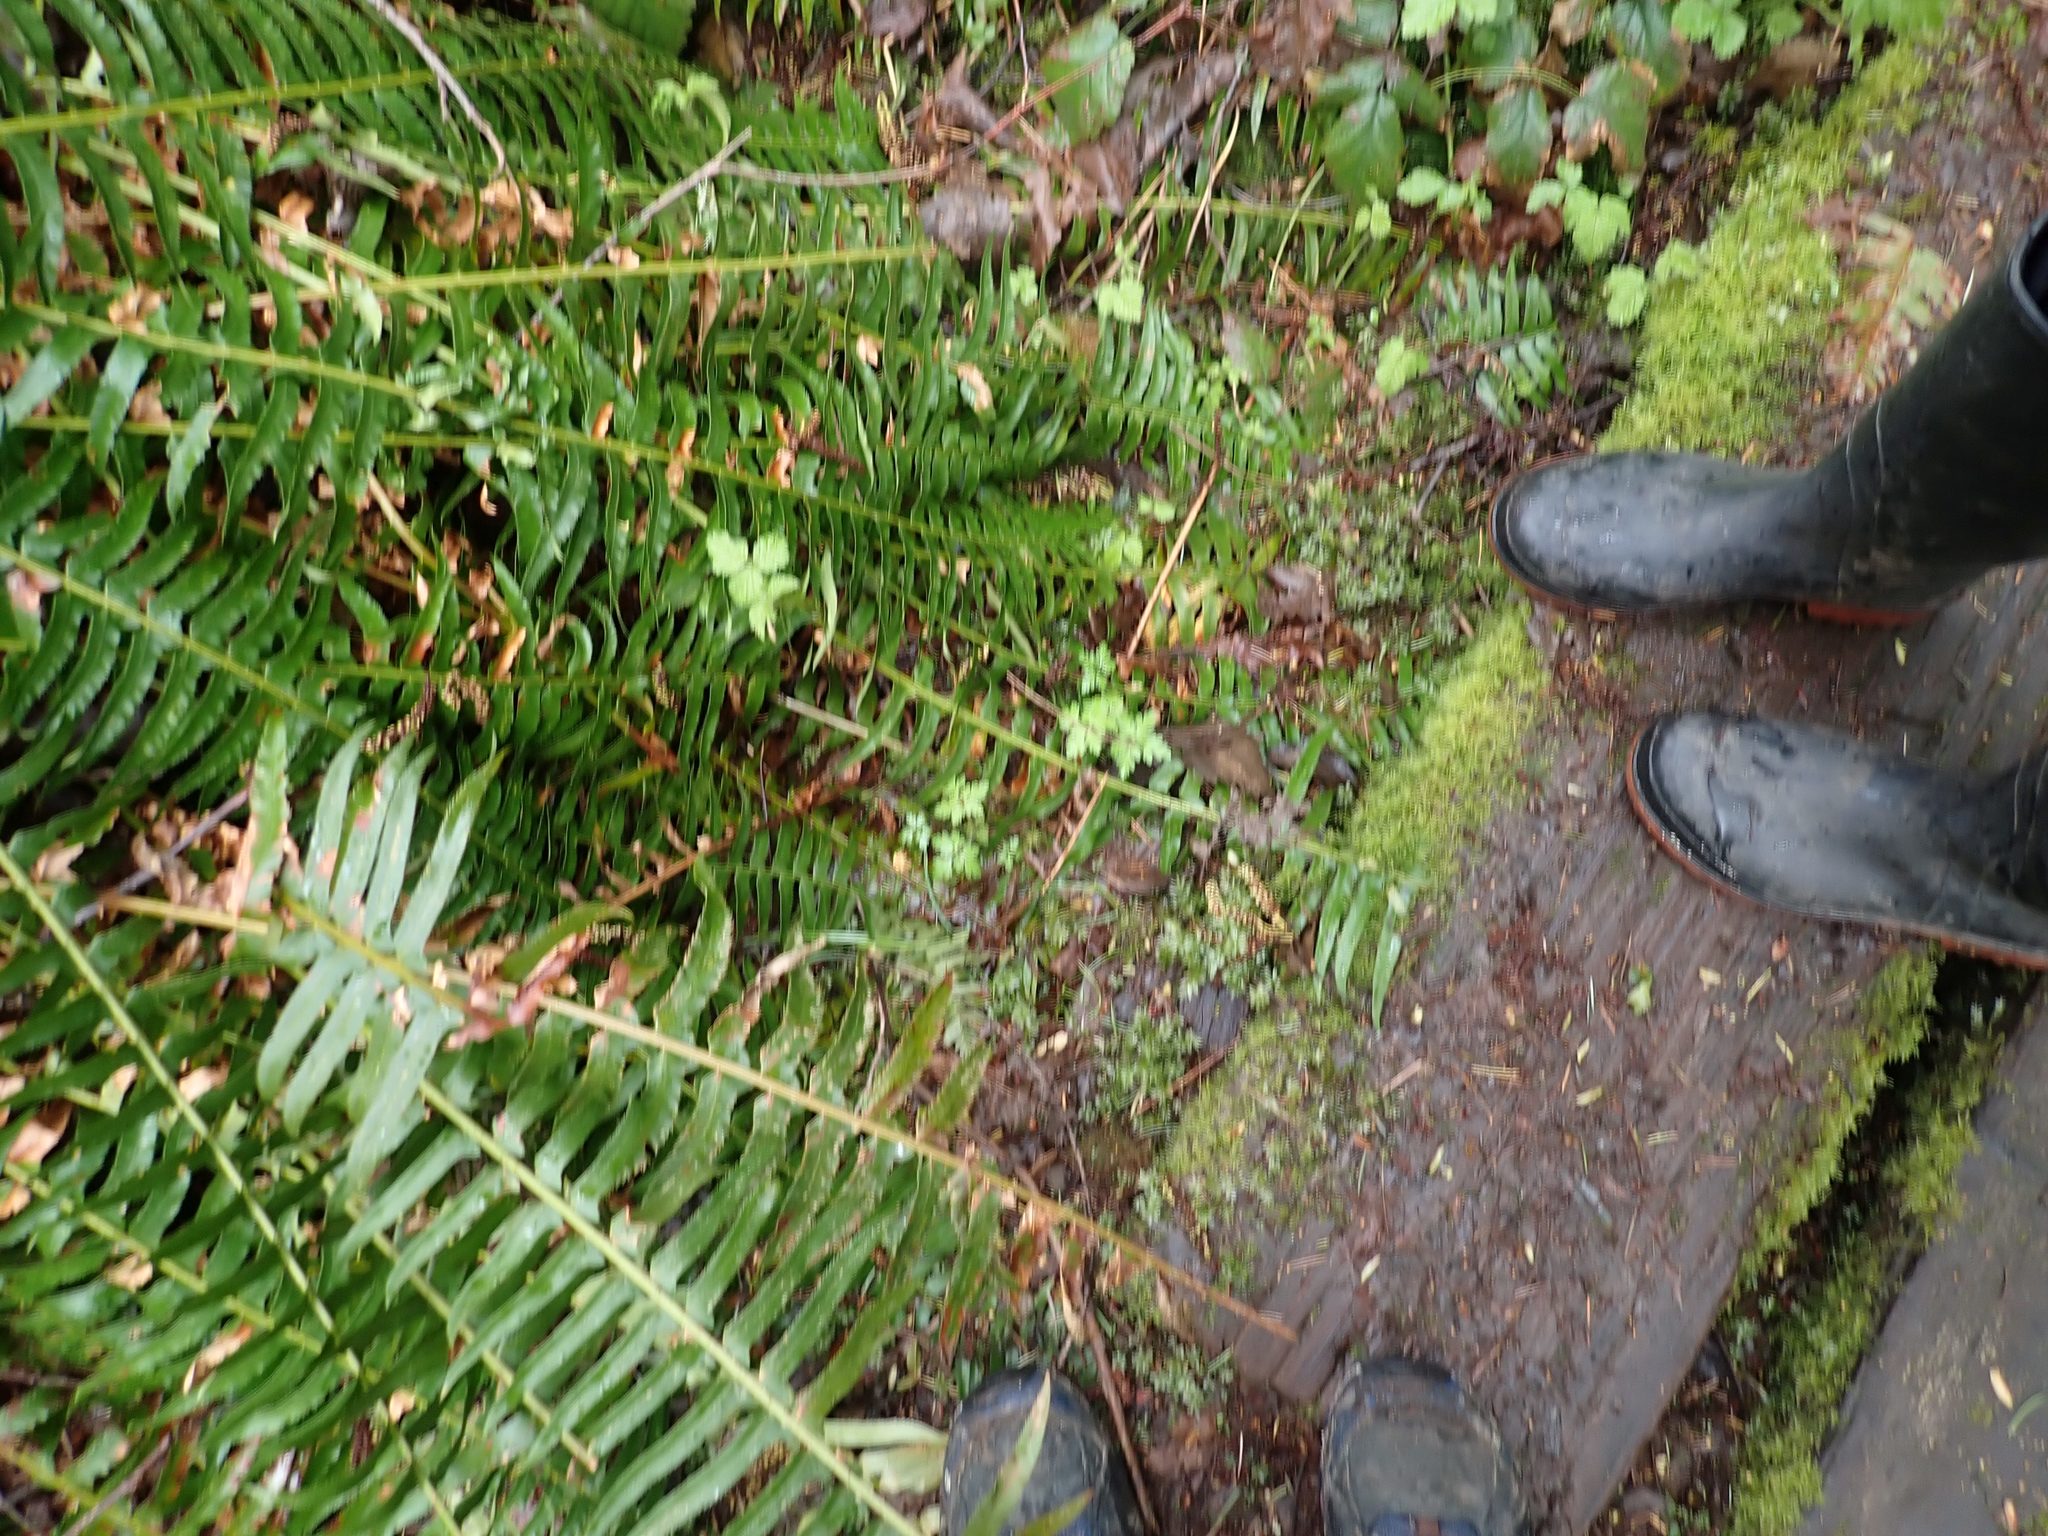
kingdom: Plantae
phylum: Tracheophyta
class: Magnoliopsida
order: Geraniales
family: Geraniaceae
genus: Geranium
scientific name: Geranium robertianum
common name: Herb-robert
